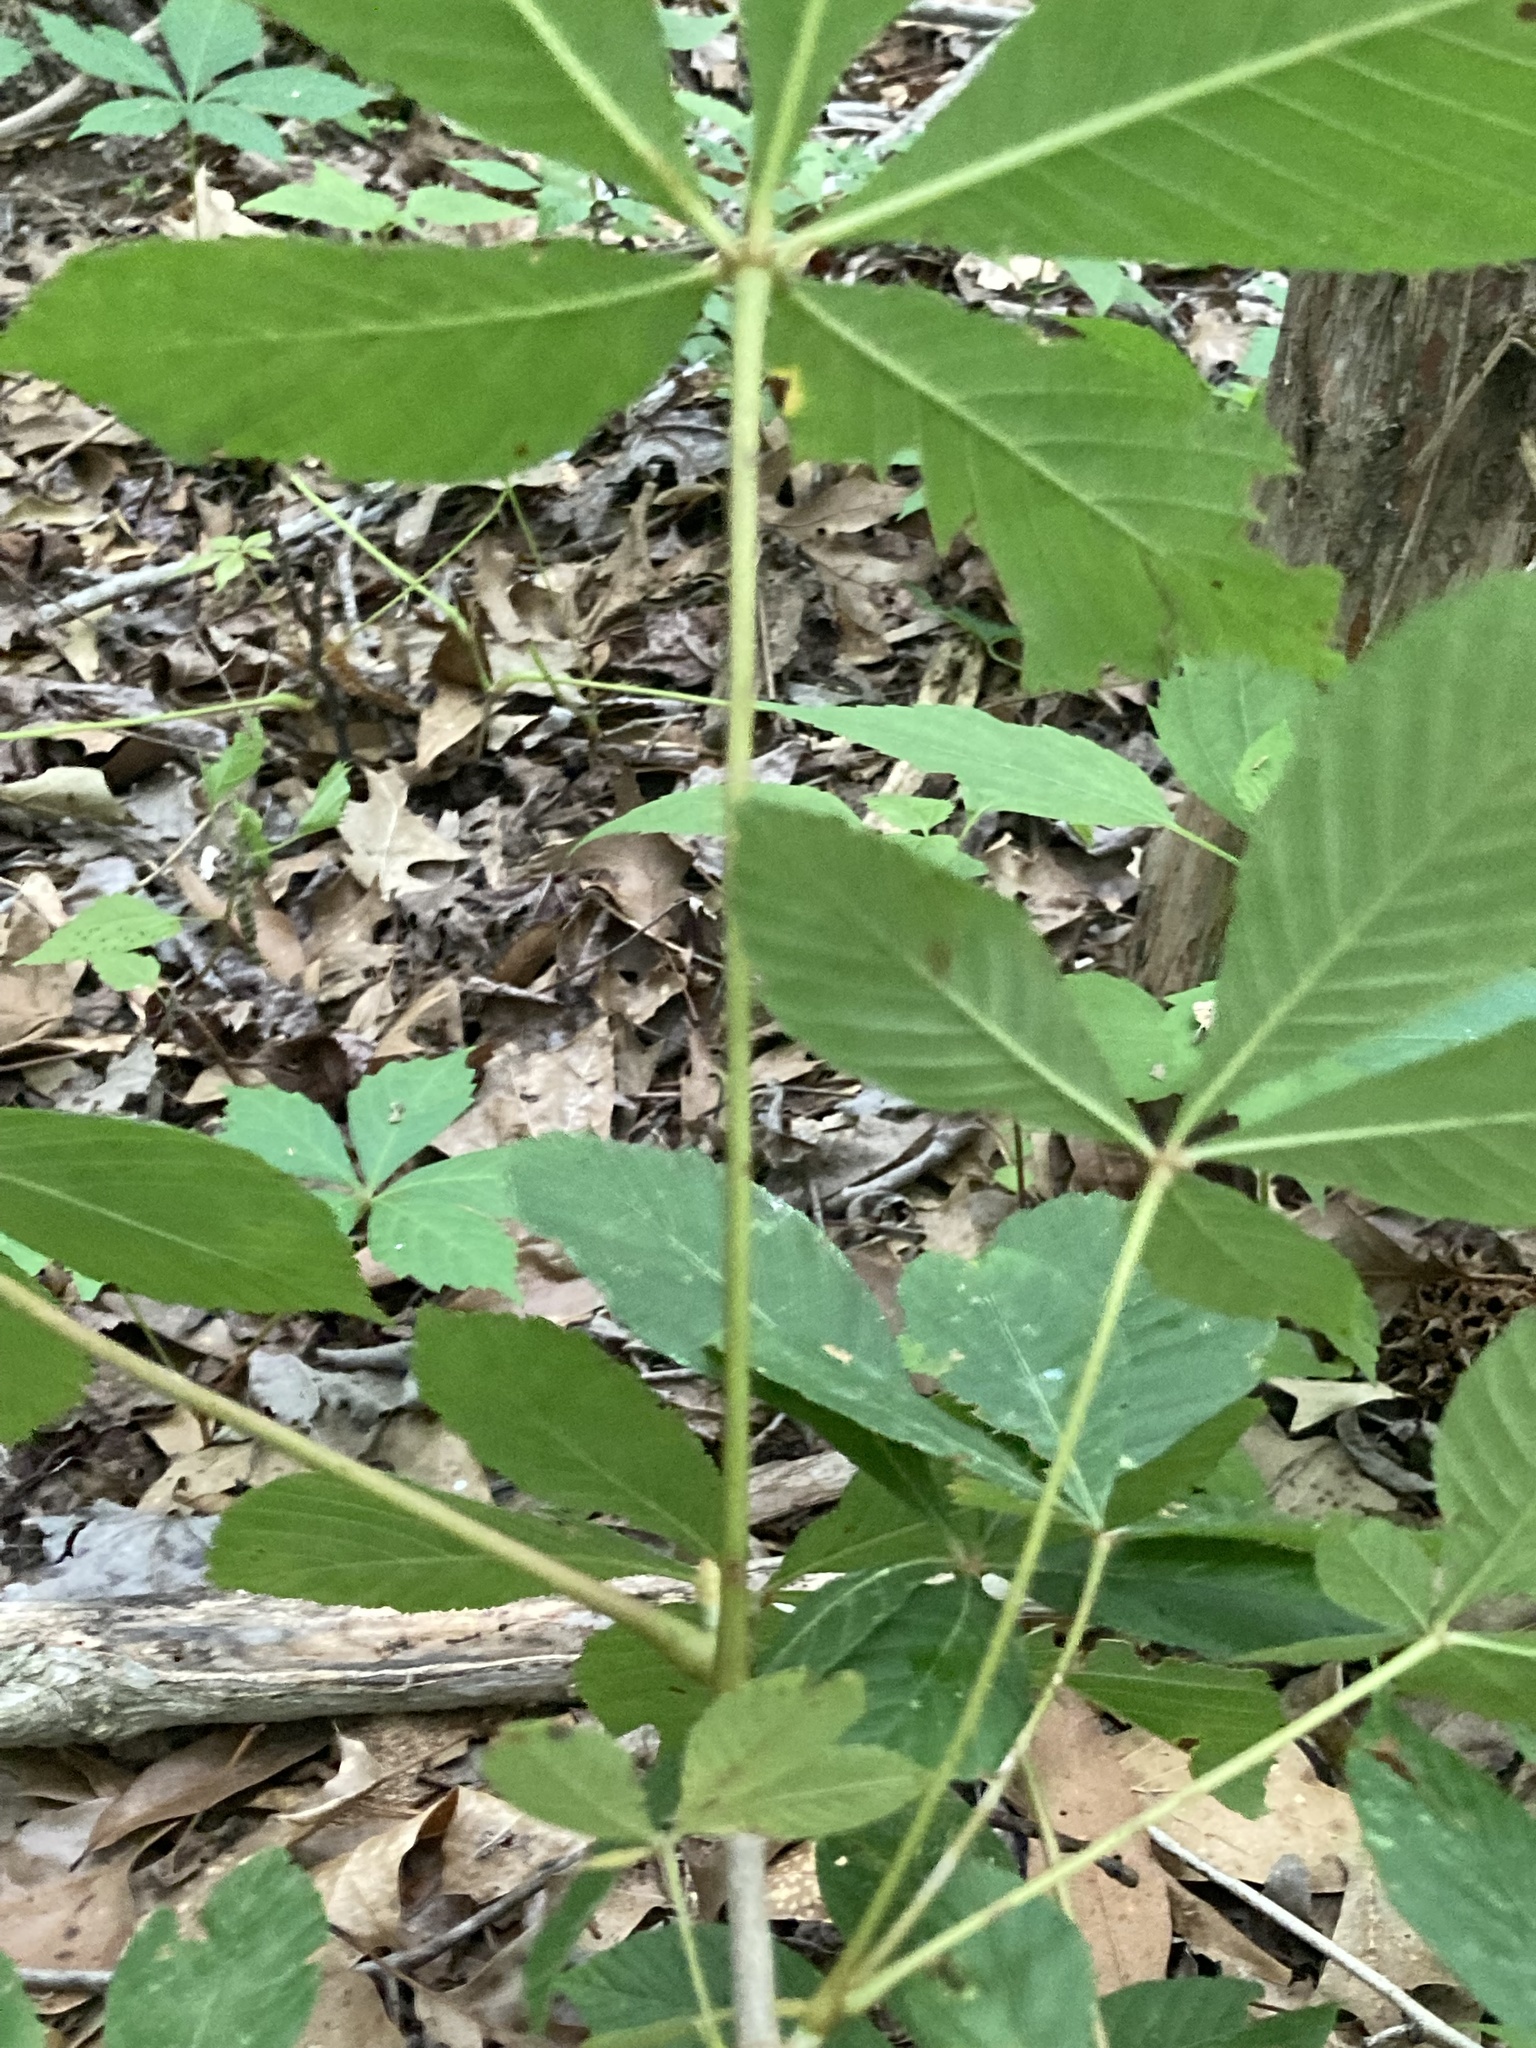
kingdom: Plantae
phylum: Tracheophyta
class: Magnoliopsida
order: Sapindales
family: Sapindaceae
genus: Aesculus
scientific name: Aesculus pavia
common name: Red buckeye
